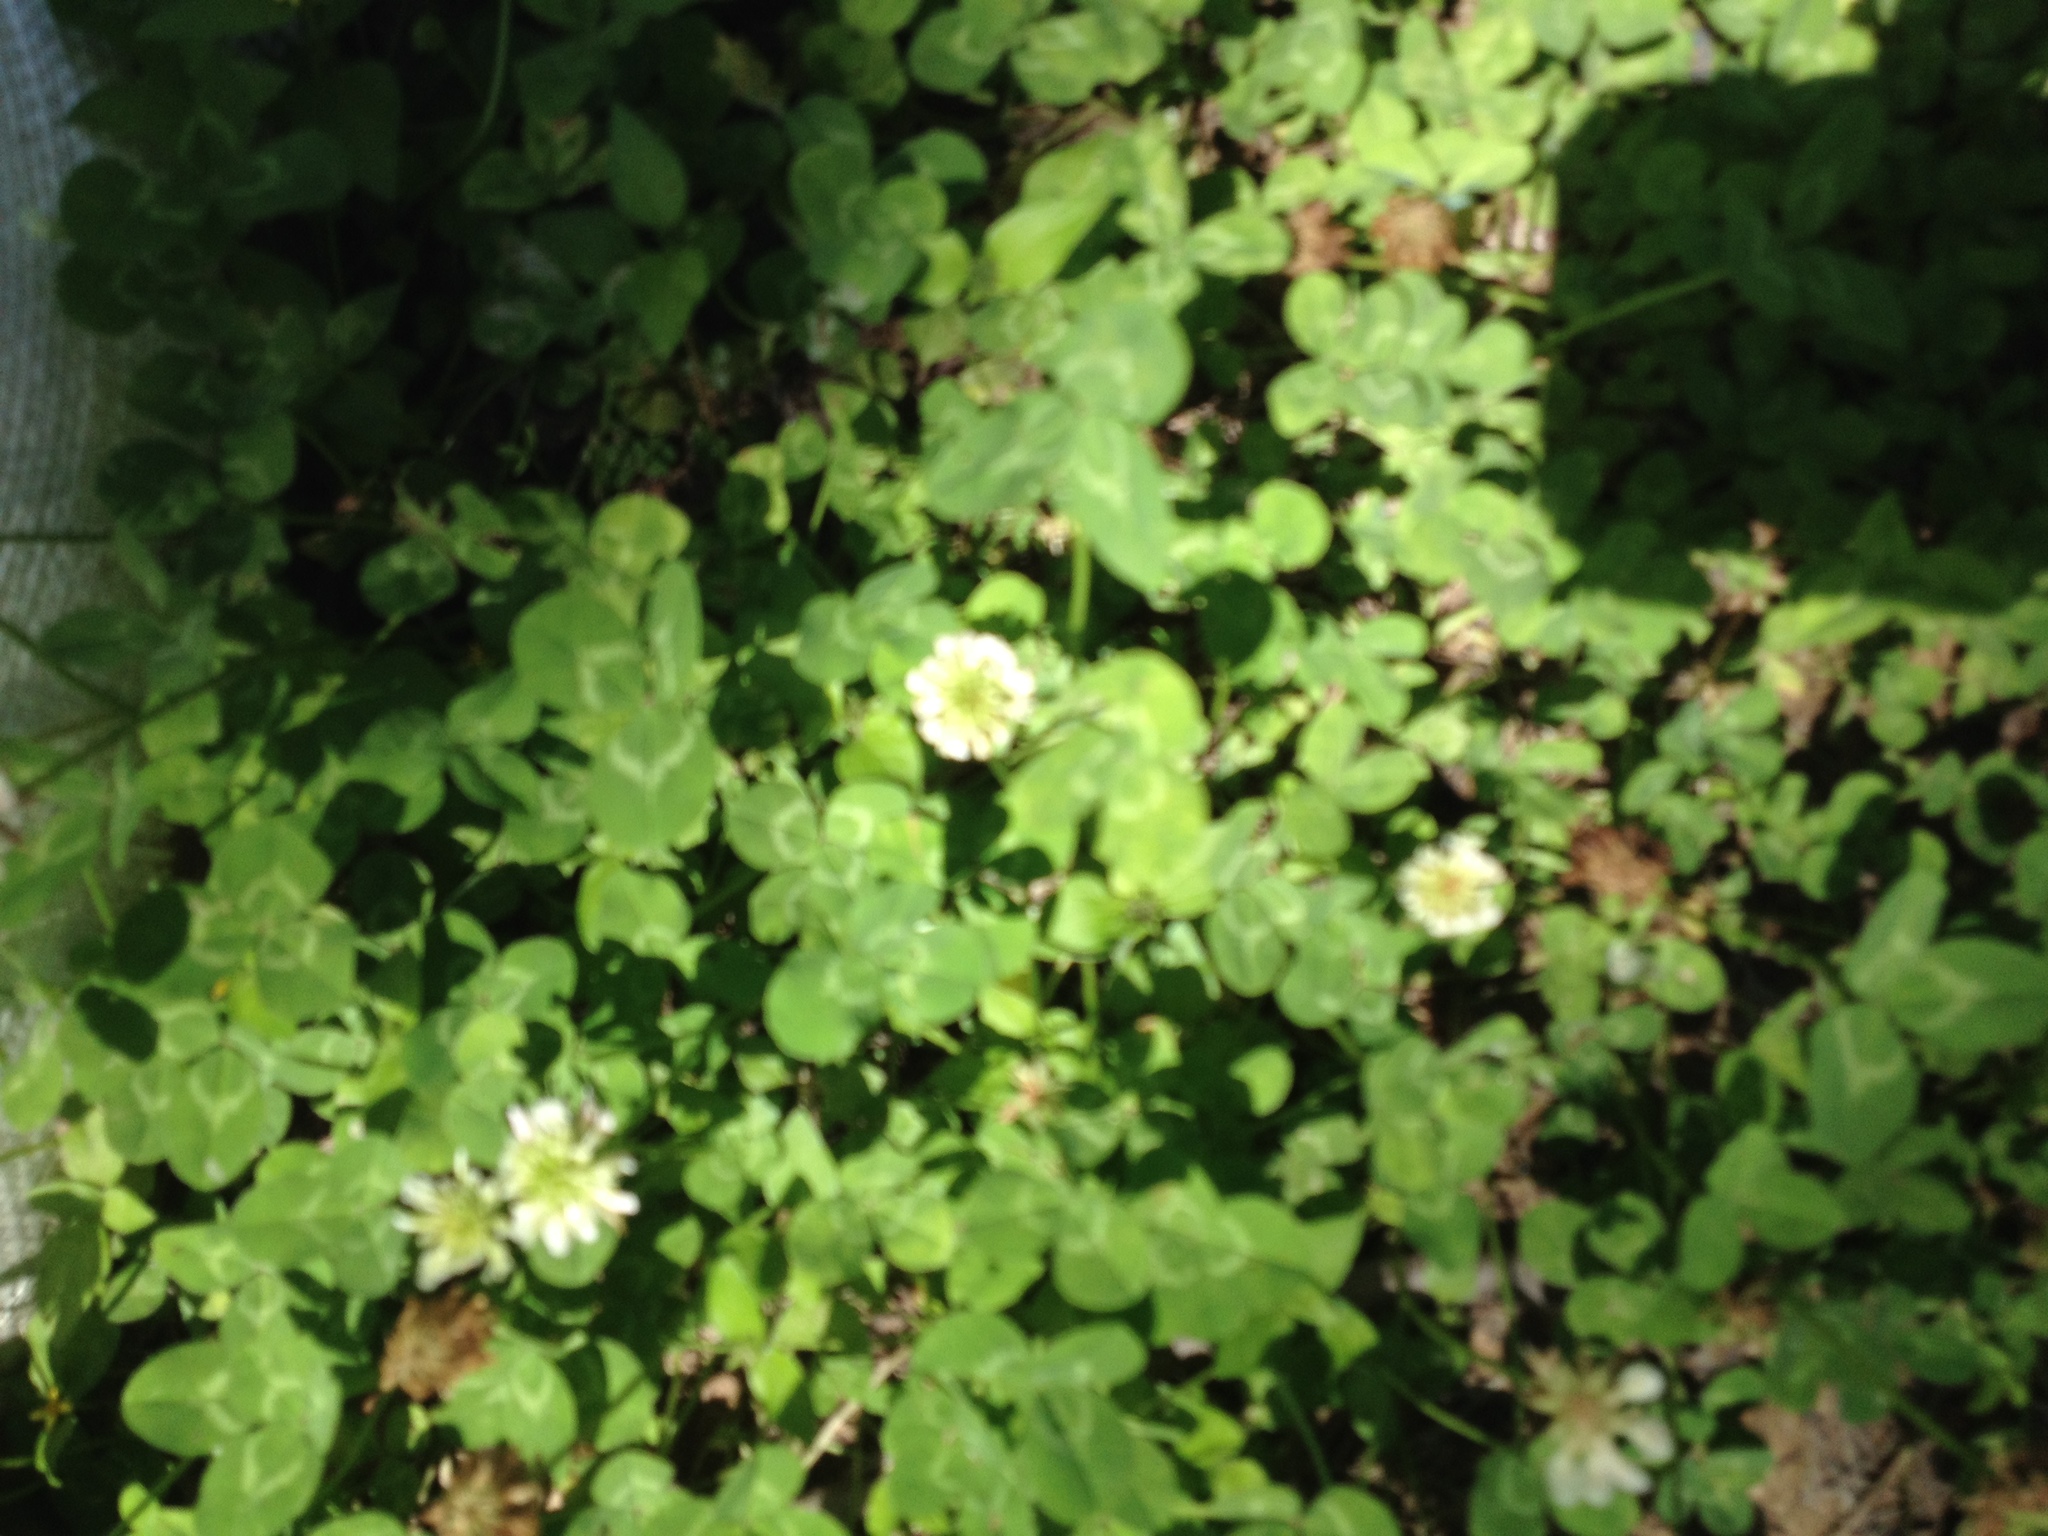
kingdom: Plantae
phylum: Tracheophyta
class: Magnoliopsida
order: Fabales
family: Fabaceae
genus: Trifolium
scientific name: Trifolium repens
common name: White clover
